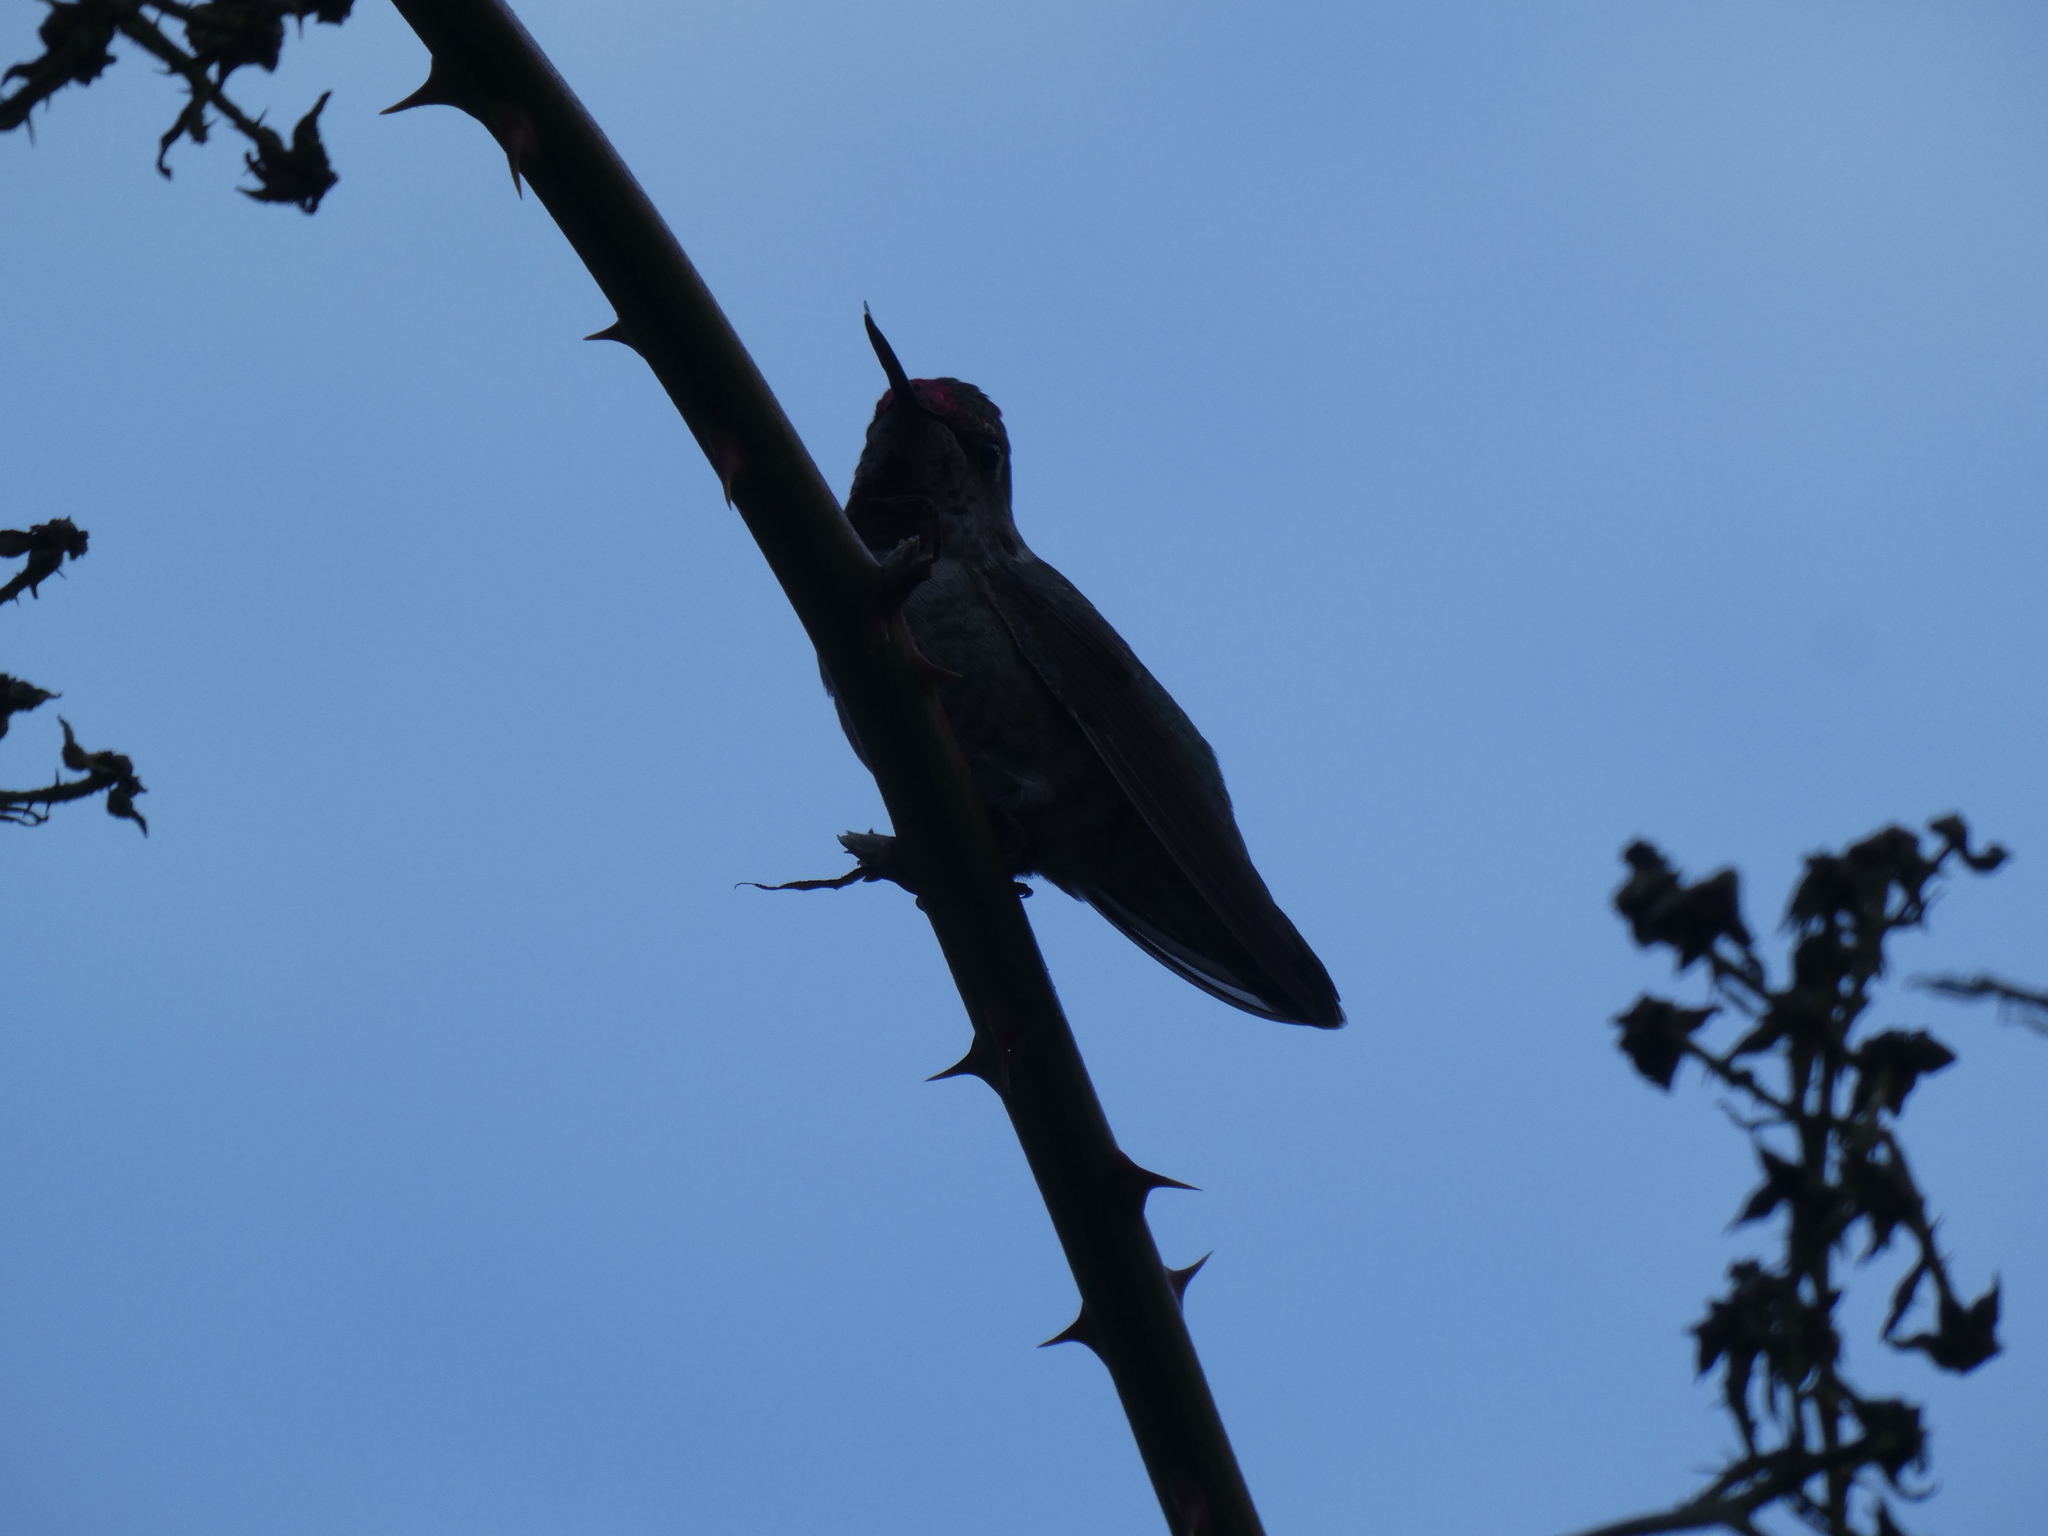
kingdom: Animalia
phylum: Chordata
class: Aves
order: Apodiformes
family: Trochilidae
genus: Calypte
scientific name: Calypte anna
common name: Anna's hummingbird
